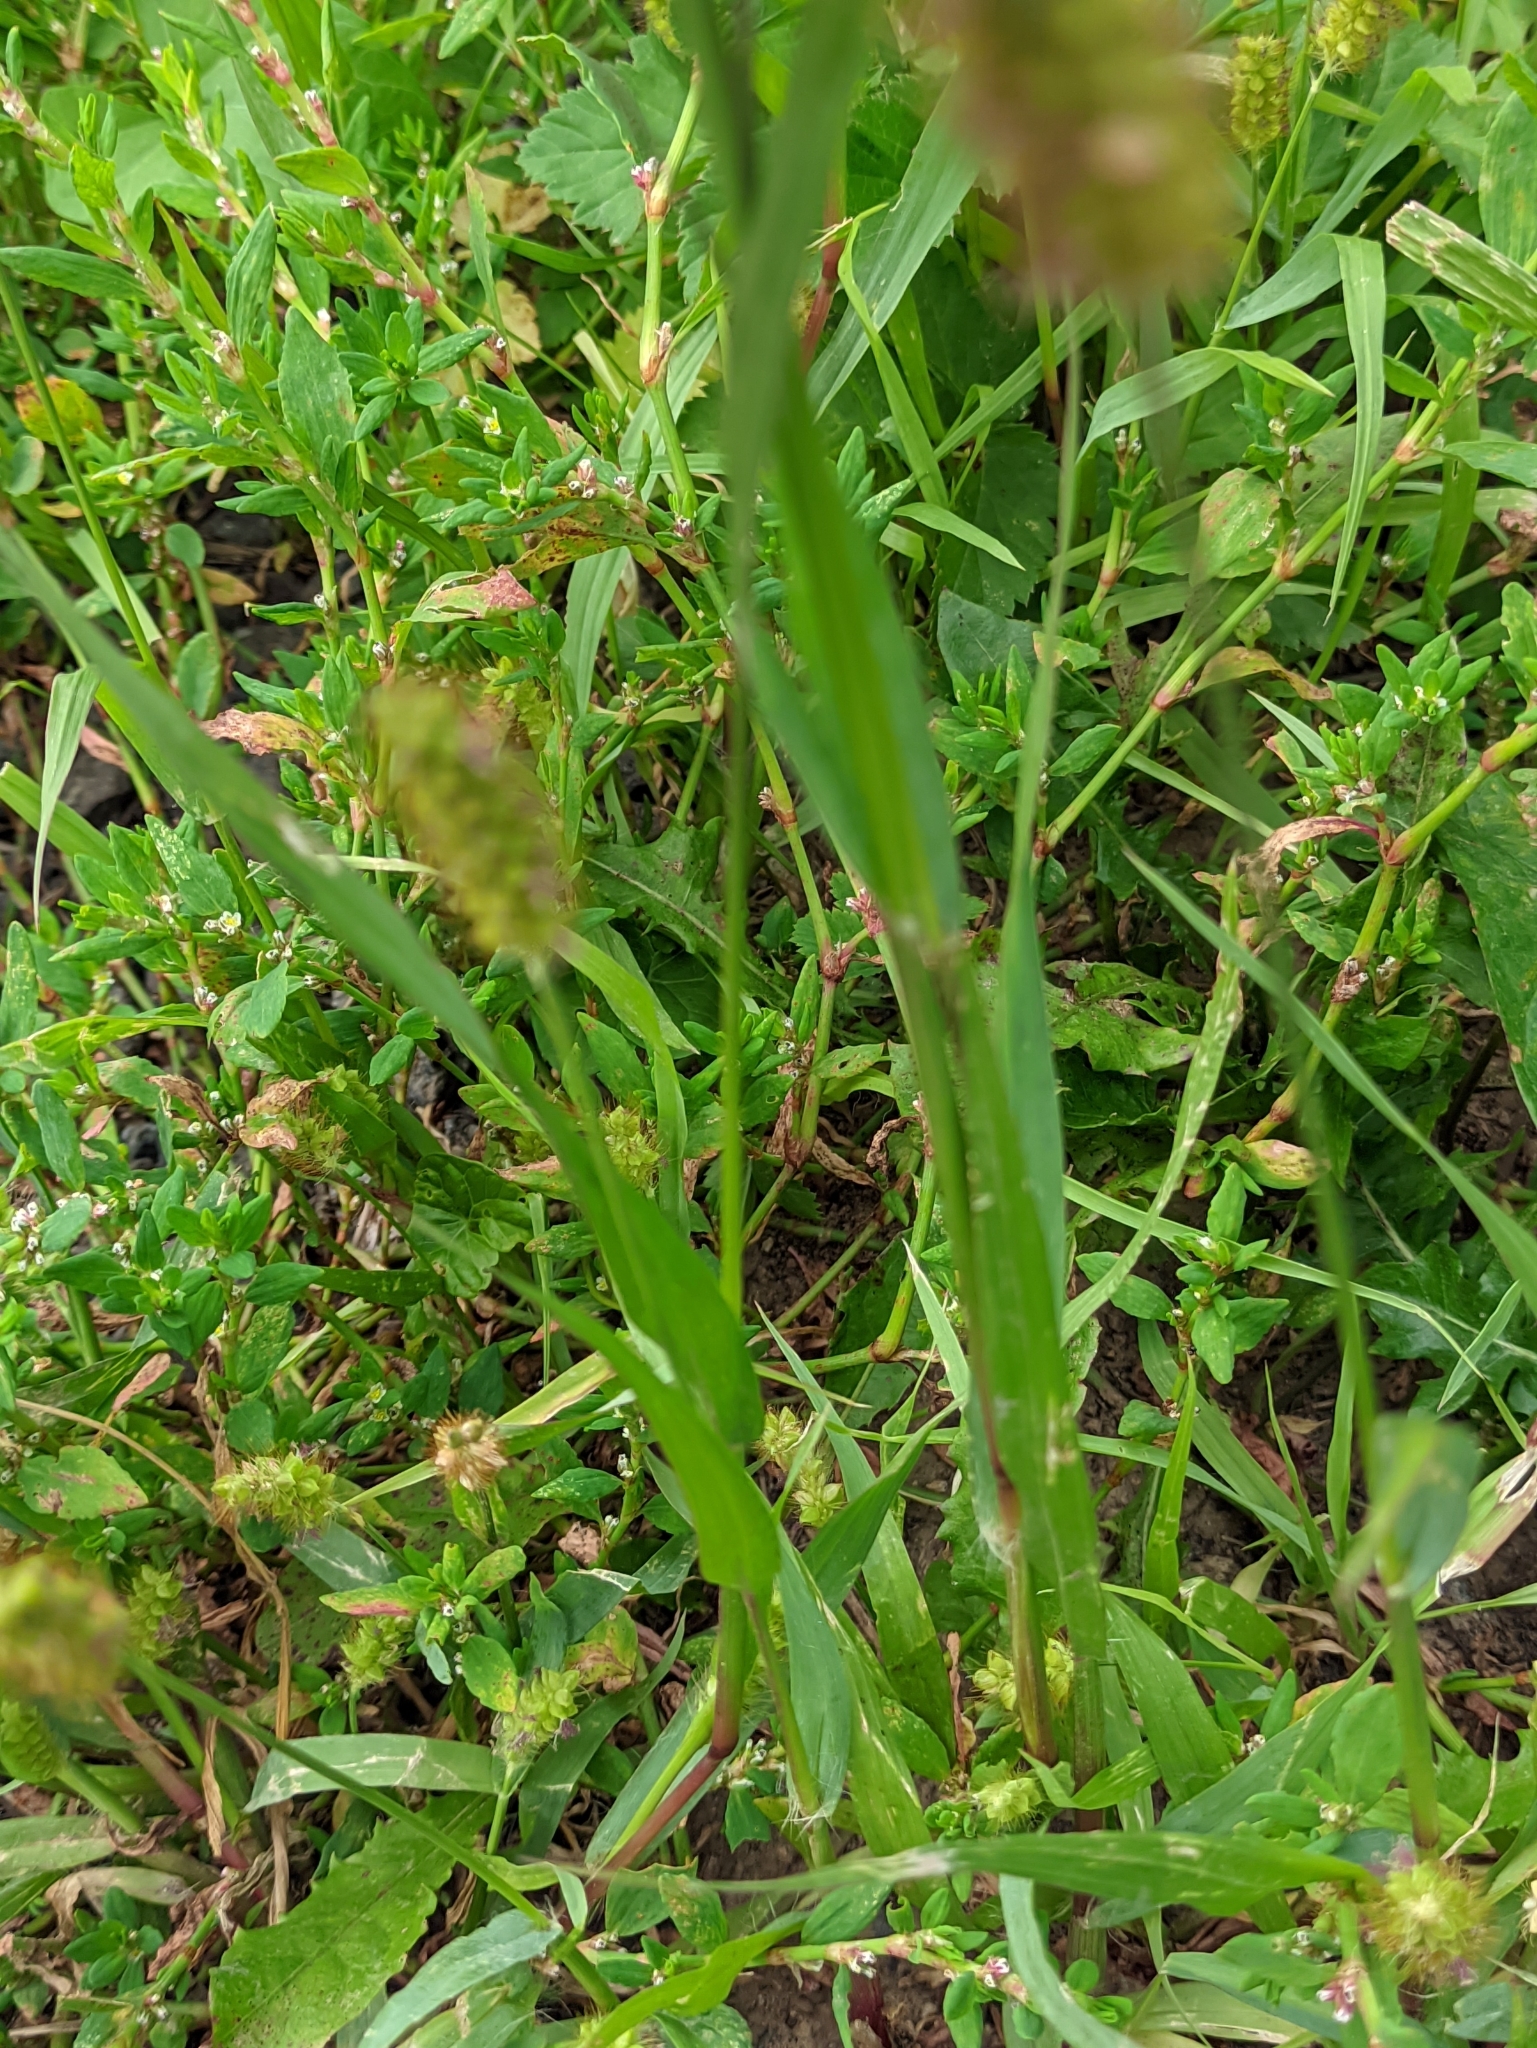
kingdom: Plantae
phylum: Tracheophyta
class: Liliopsida
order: Poales
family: Poaceae
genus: Setaria
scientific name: Setaria pumila
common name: Yellow bristle-grass
